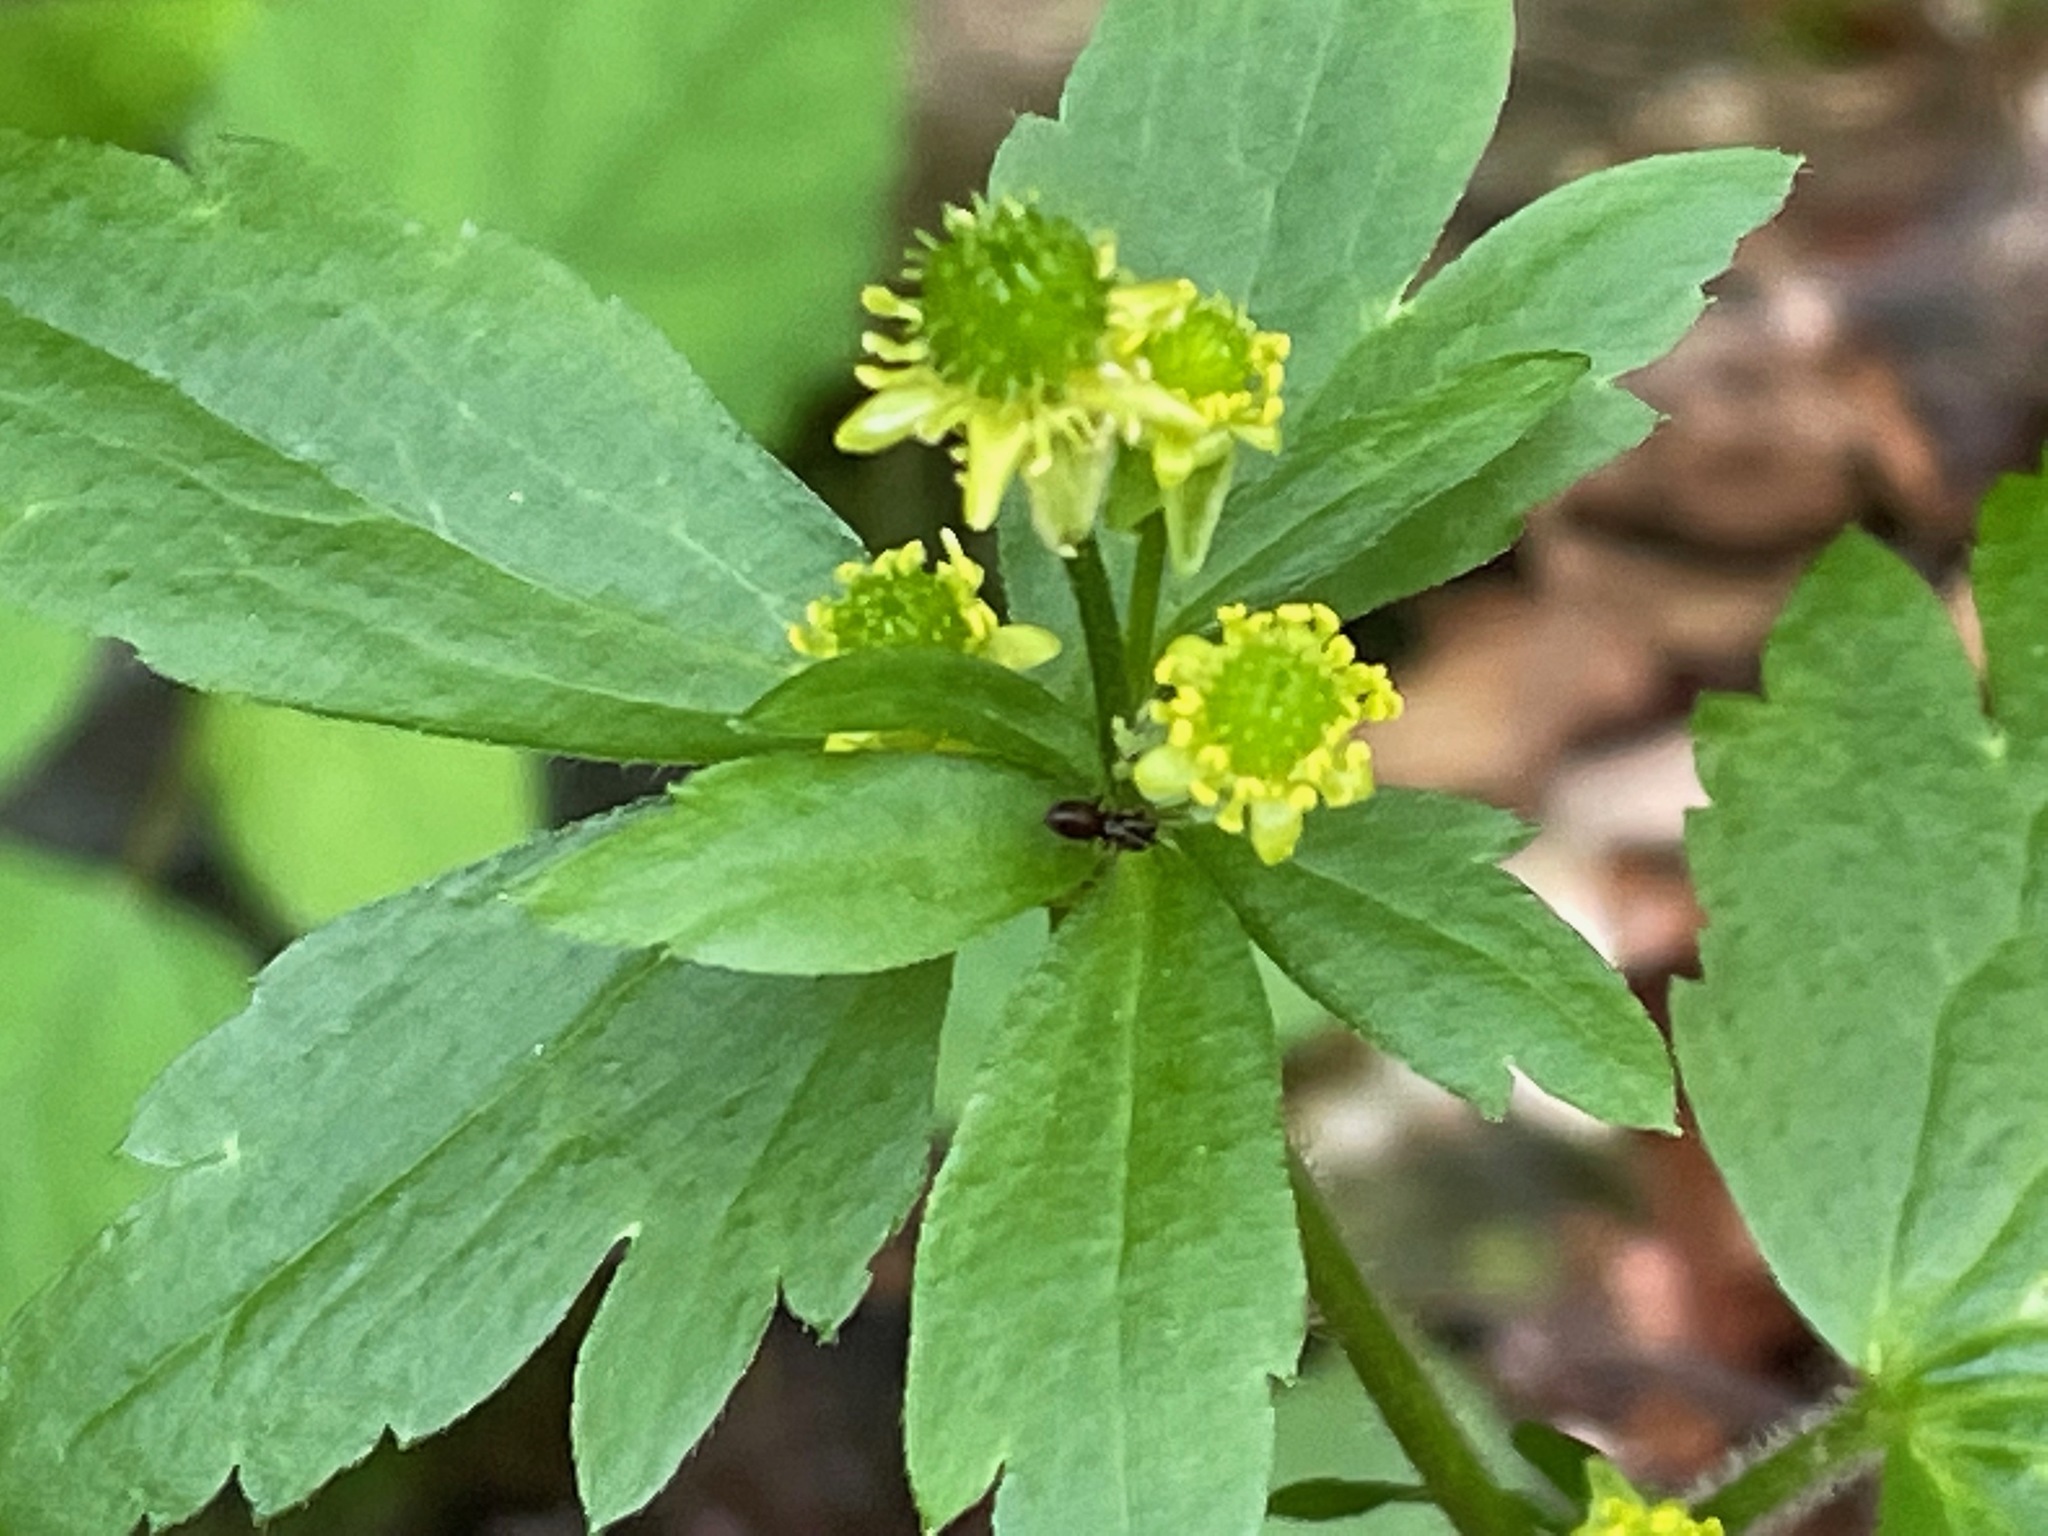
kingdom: Plantae
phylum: Tracheophyta
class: Magnoliopsida
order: Ranunculales
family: Ranunculaceae
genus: Ranunculus
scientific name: Ranunculus recurvatus
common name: Blisterwort
